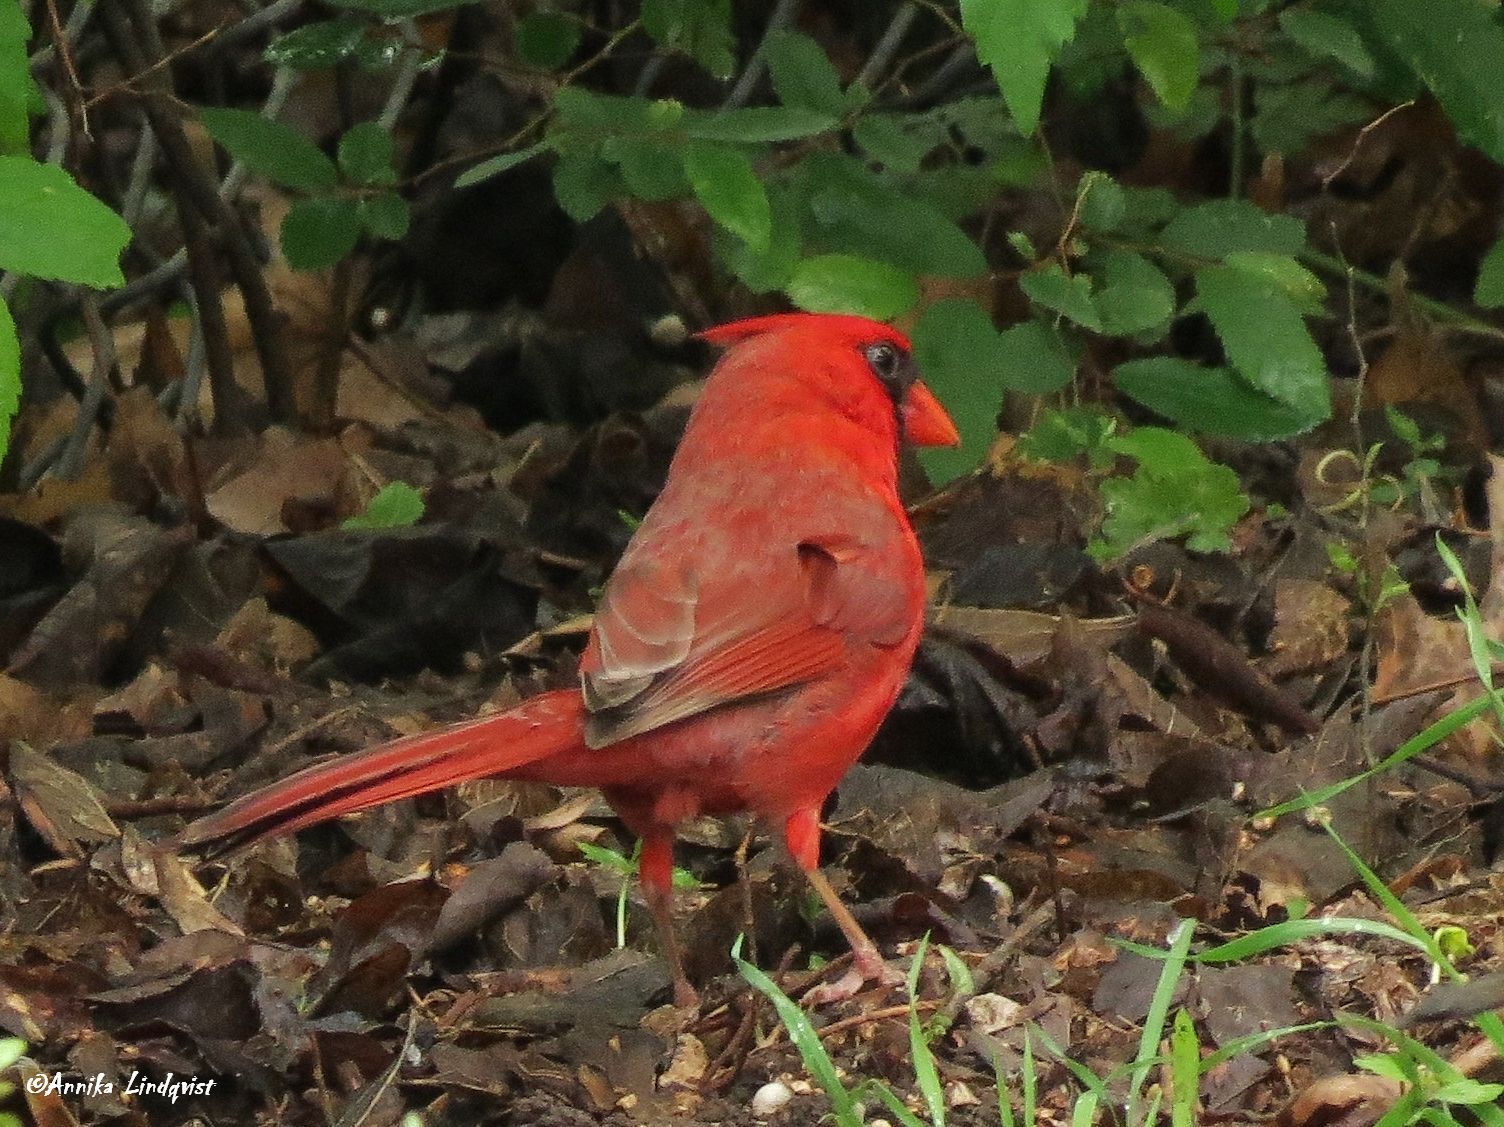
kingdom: Animalia
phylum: Chordata
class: Aves
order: Passeriformes
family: Cardinalidae
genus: Cardinalis
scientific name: Cardinalis cardinalis
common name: Northern cardinal
